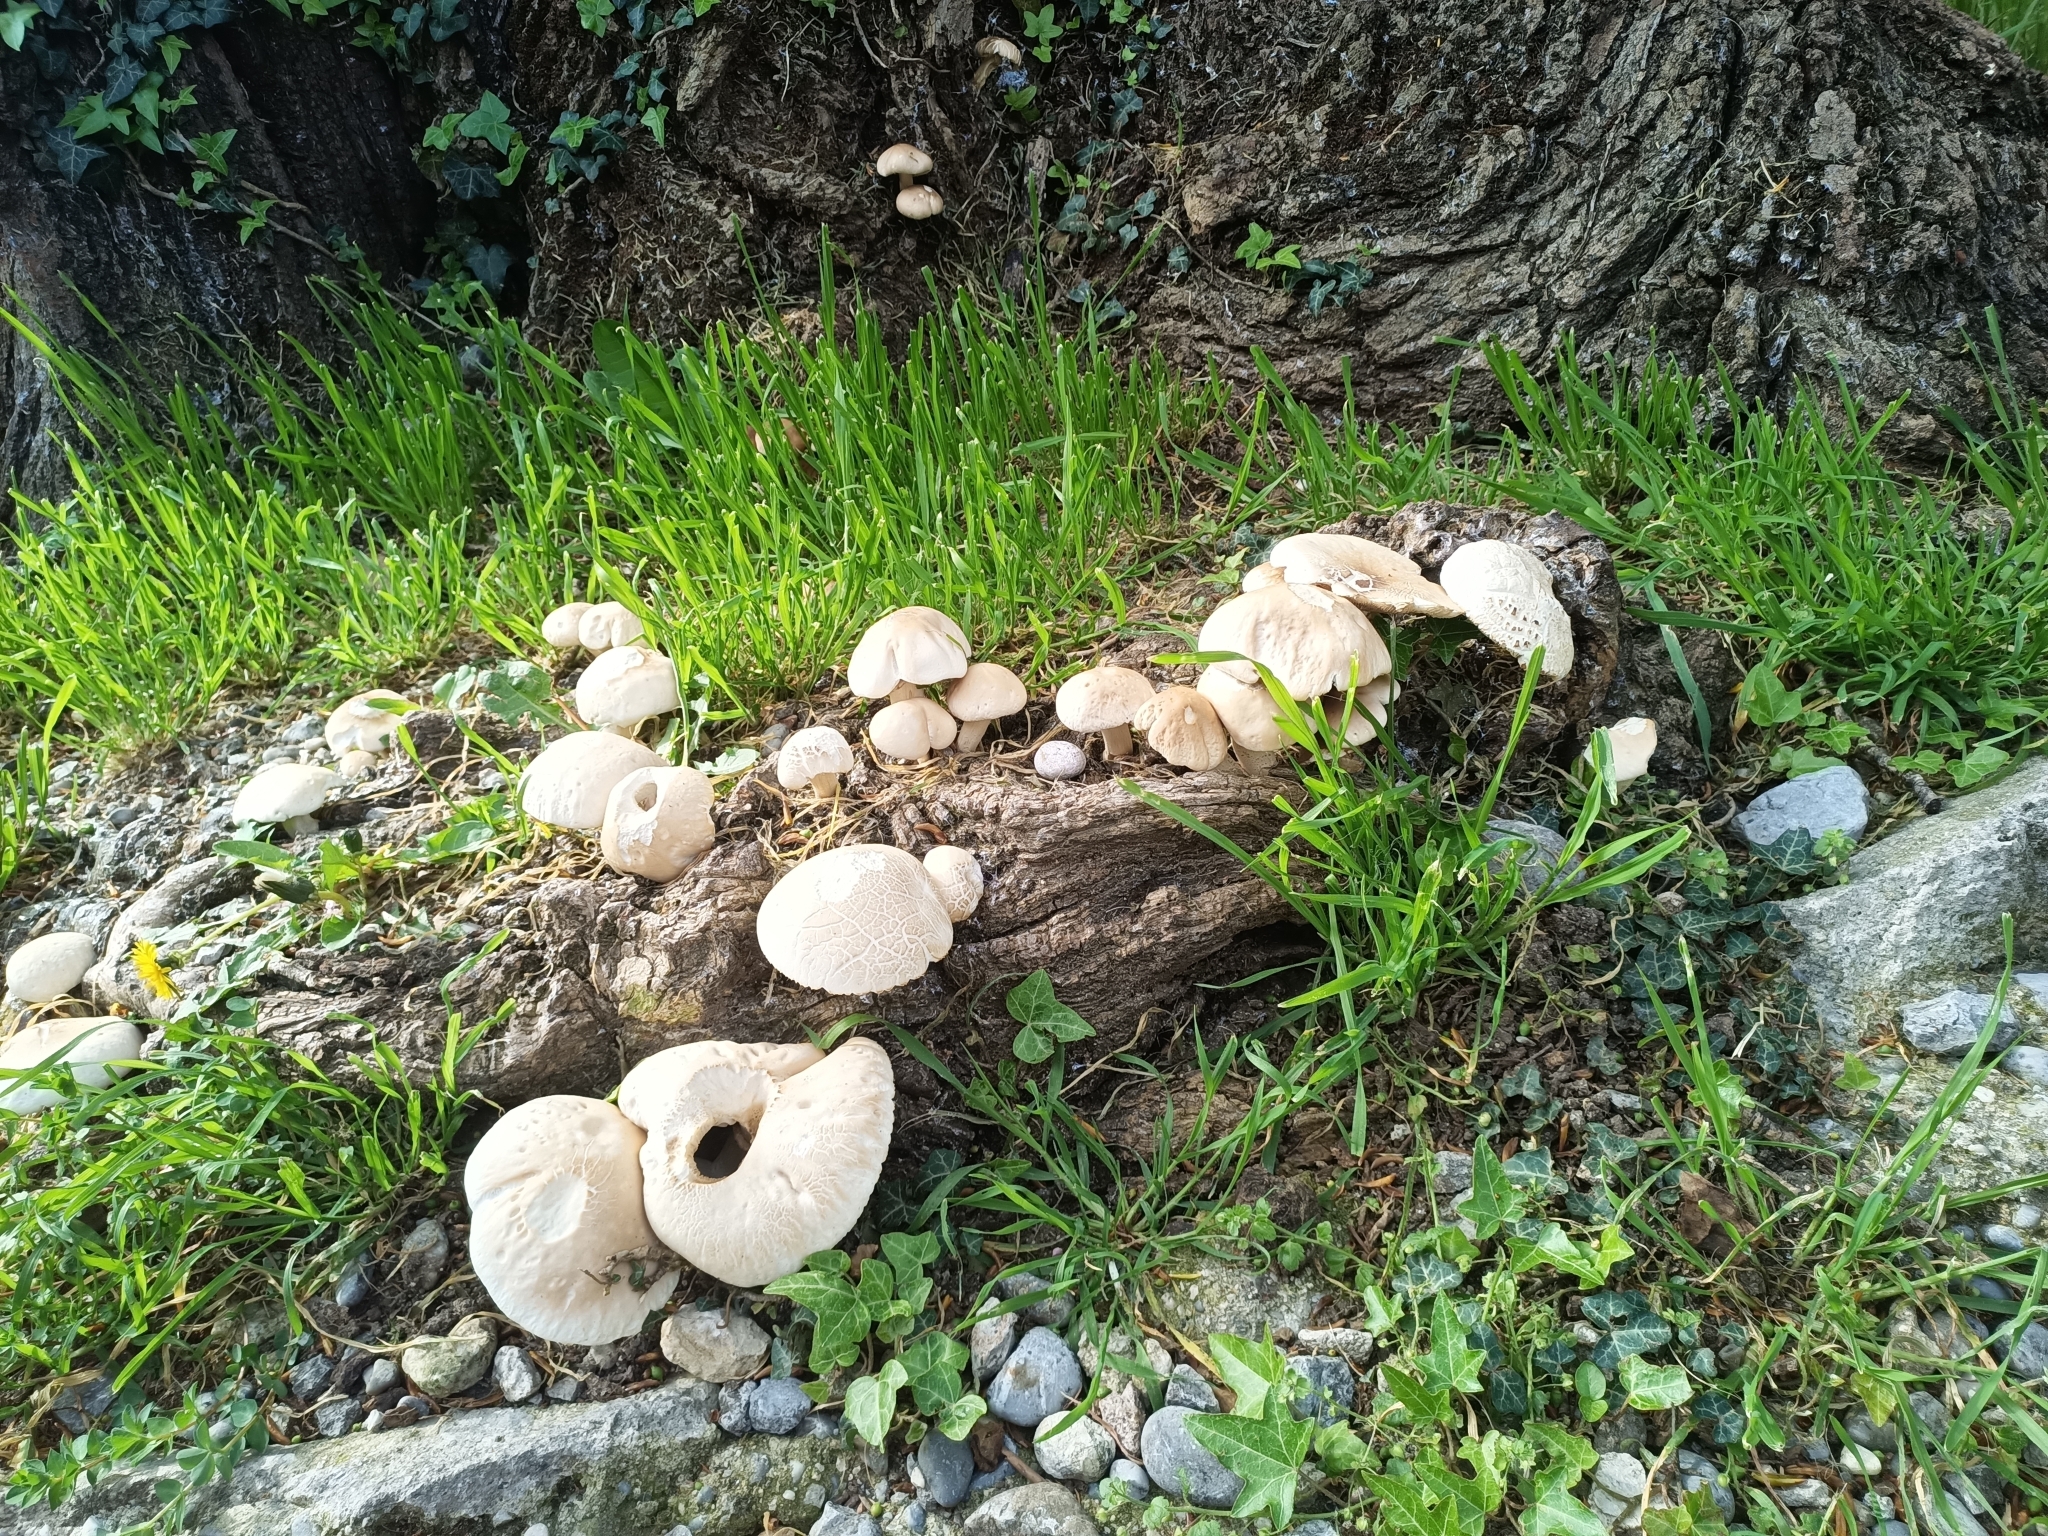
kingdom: Fungi
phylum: Basidiomycota
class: Agaricomycetes
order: Agaricales
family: Tubariaceae
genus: Cyclocybe
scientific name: Cyclocybe cylindracea
